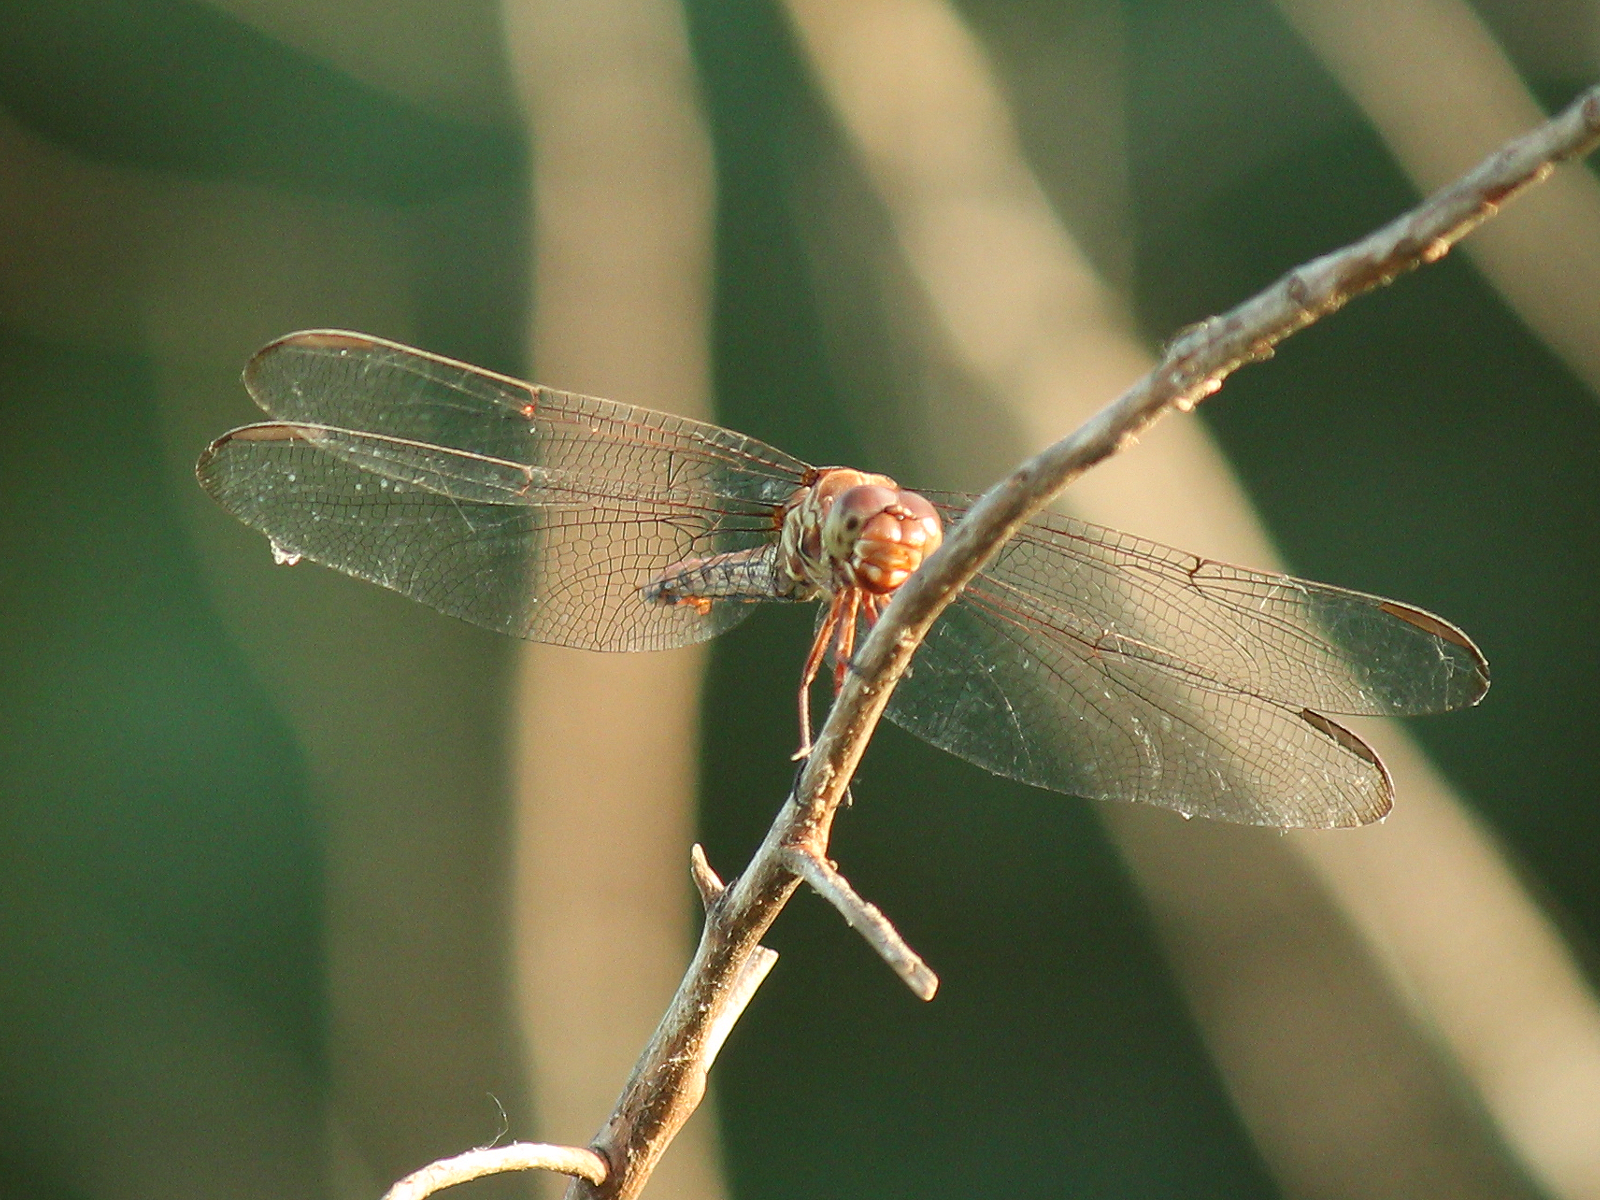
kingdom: Animalia
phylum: Arthropoda
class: Insecta
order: Odonata
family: Libellulidae
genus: Orthemis
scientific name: Orthemis ferruginea
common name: Roseate skimmer
